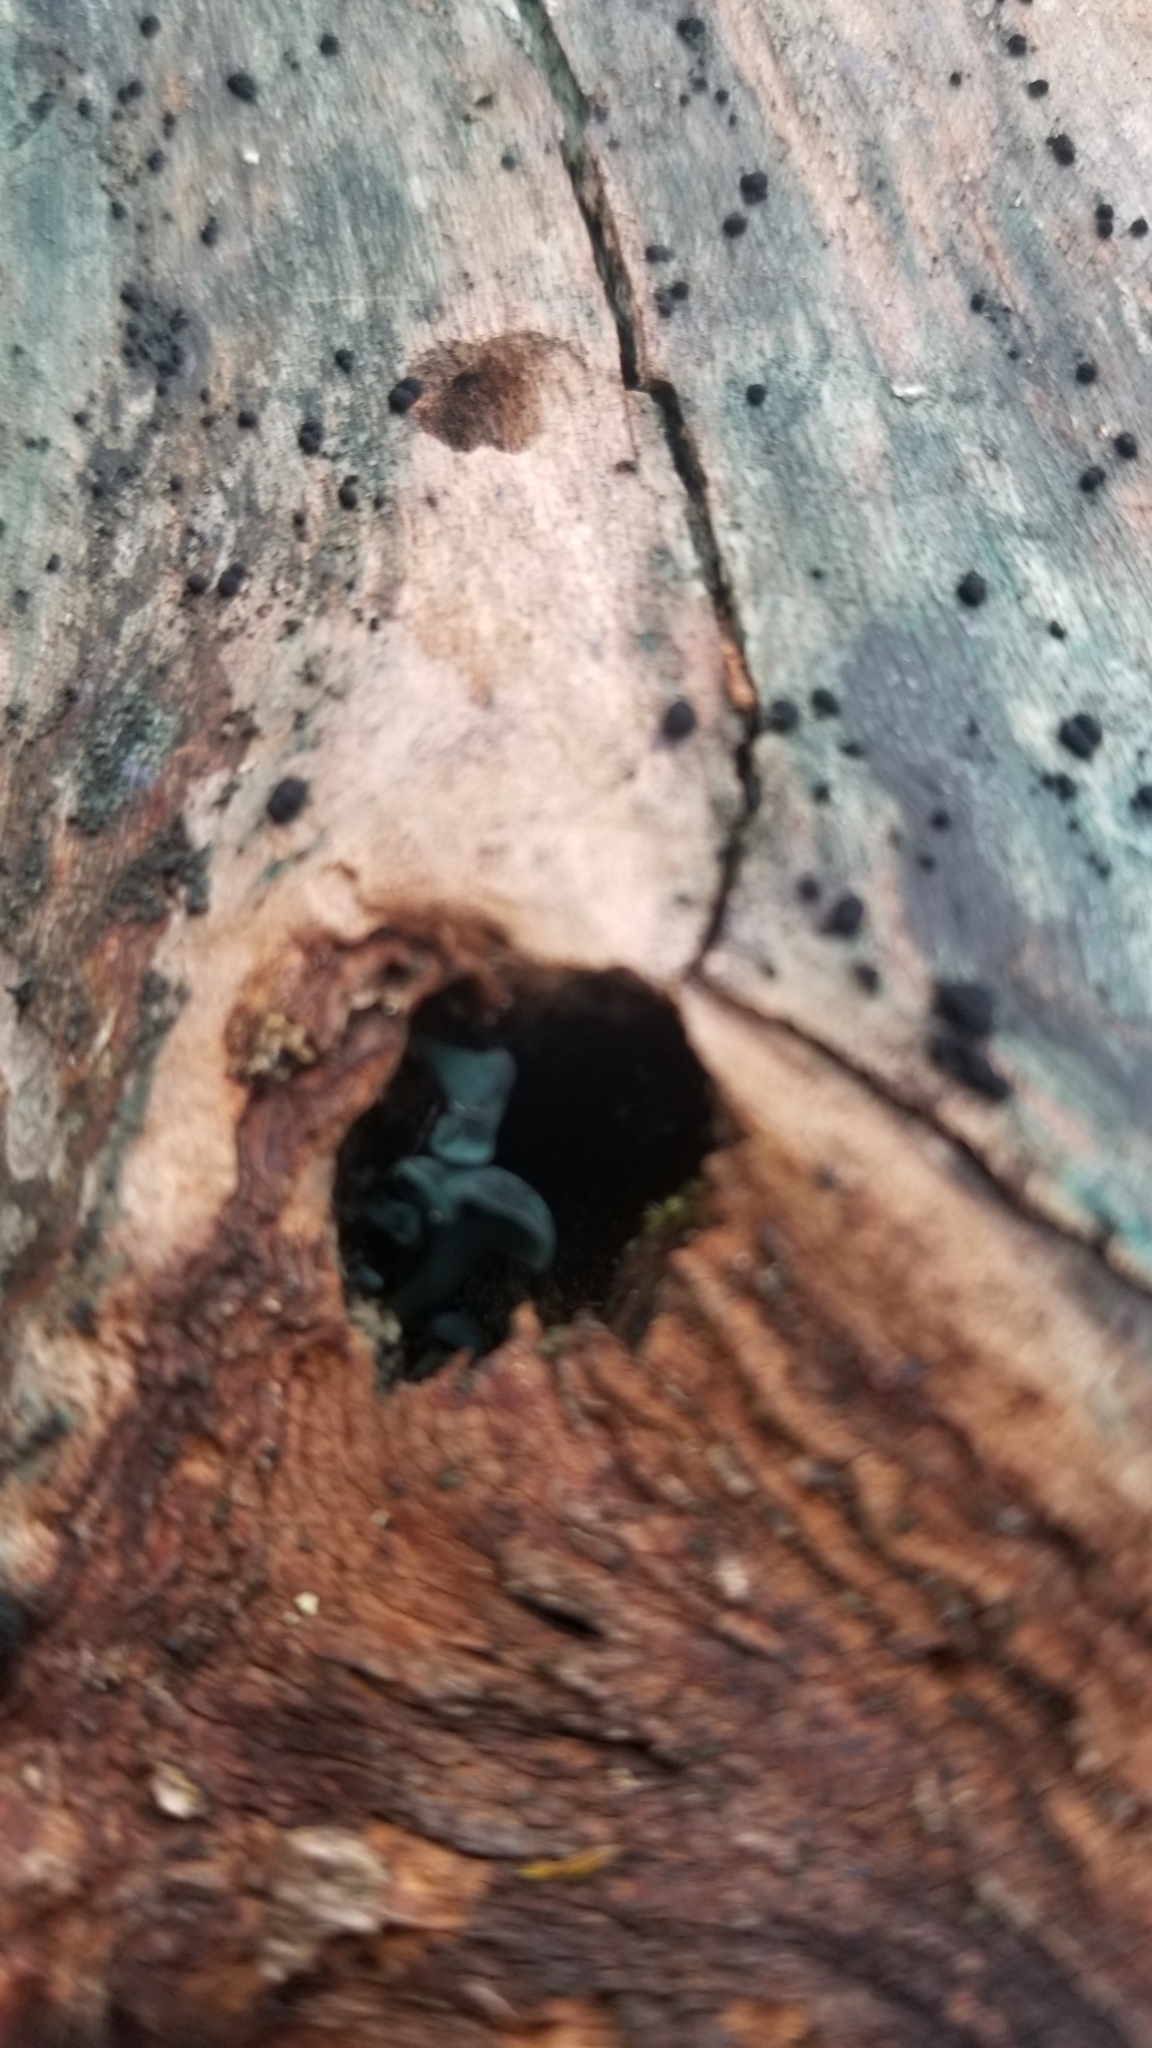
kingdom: Fungi
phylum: Ascomycota
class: Leotiomycetes
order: Helotiales
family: Chlorociboriaceae
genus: Chlorociboria
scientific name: Chlorociboria aeruginascens
